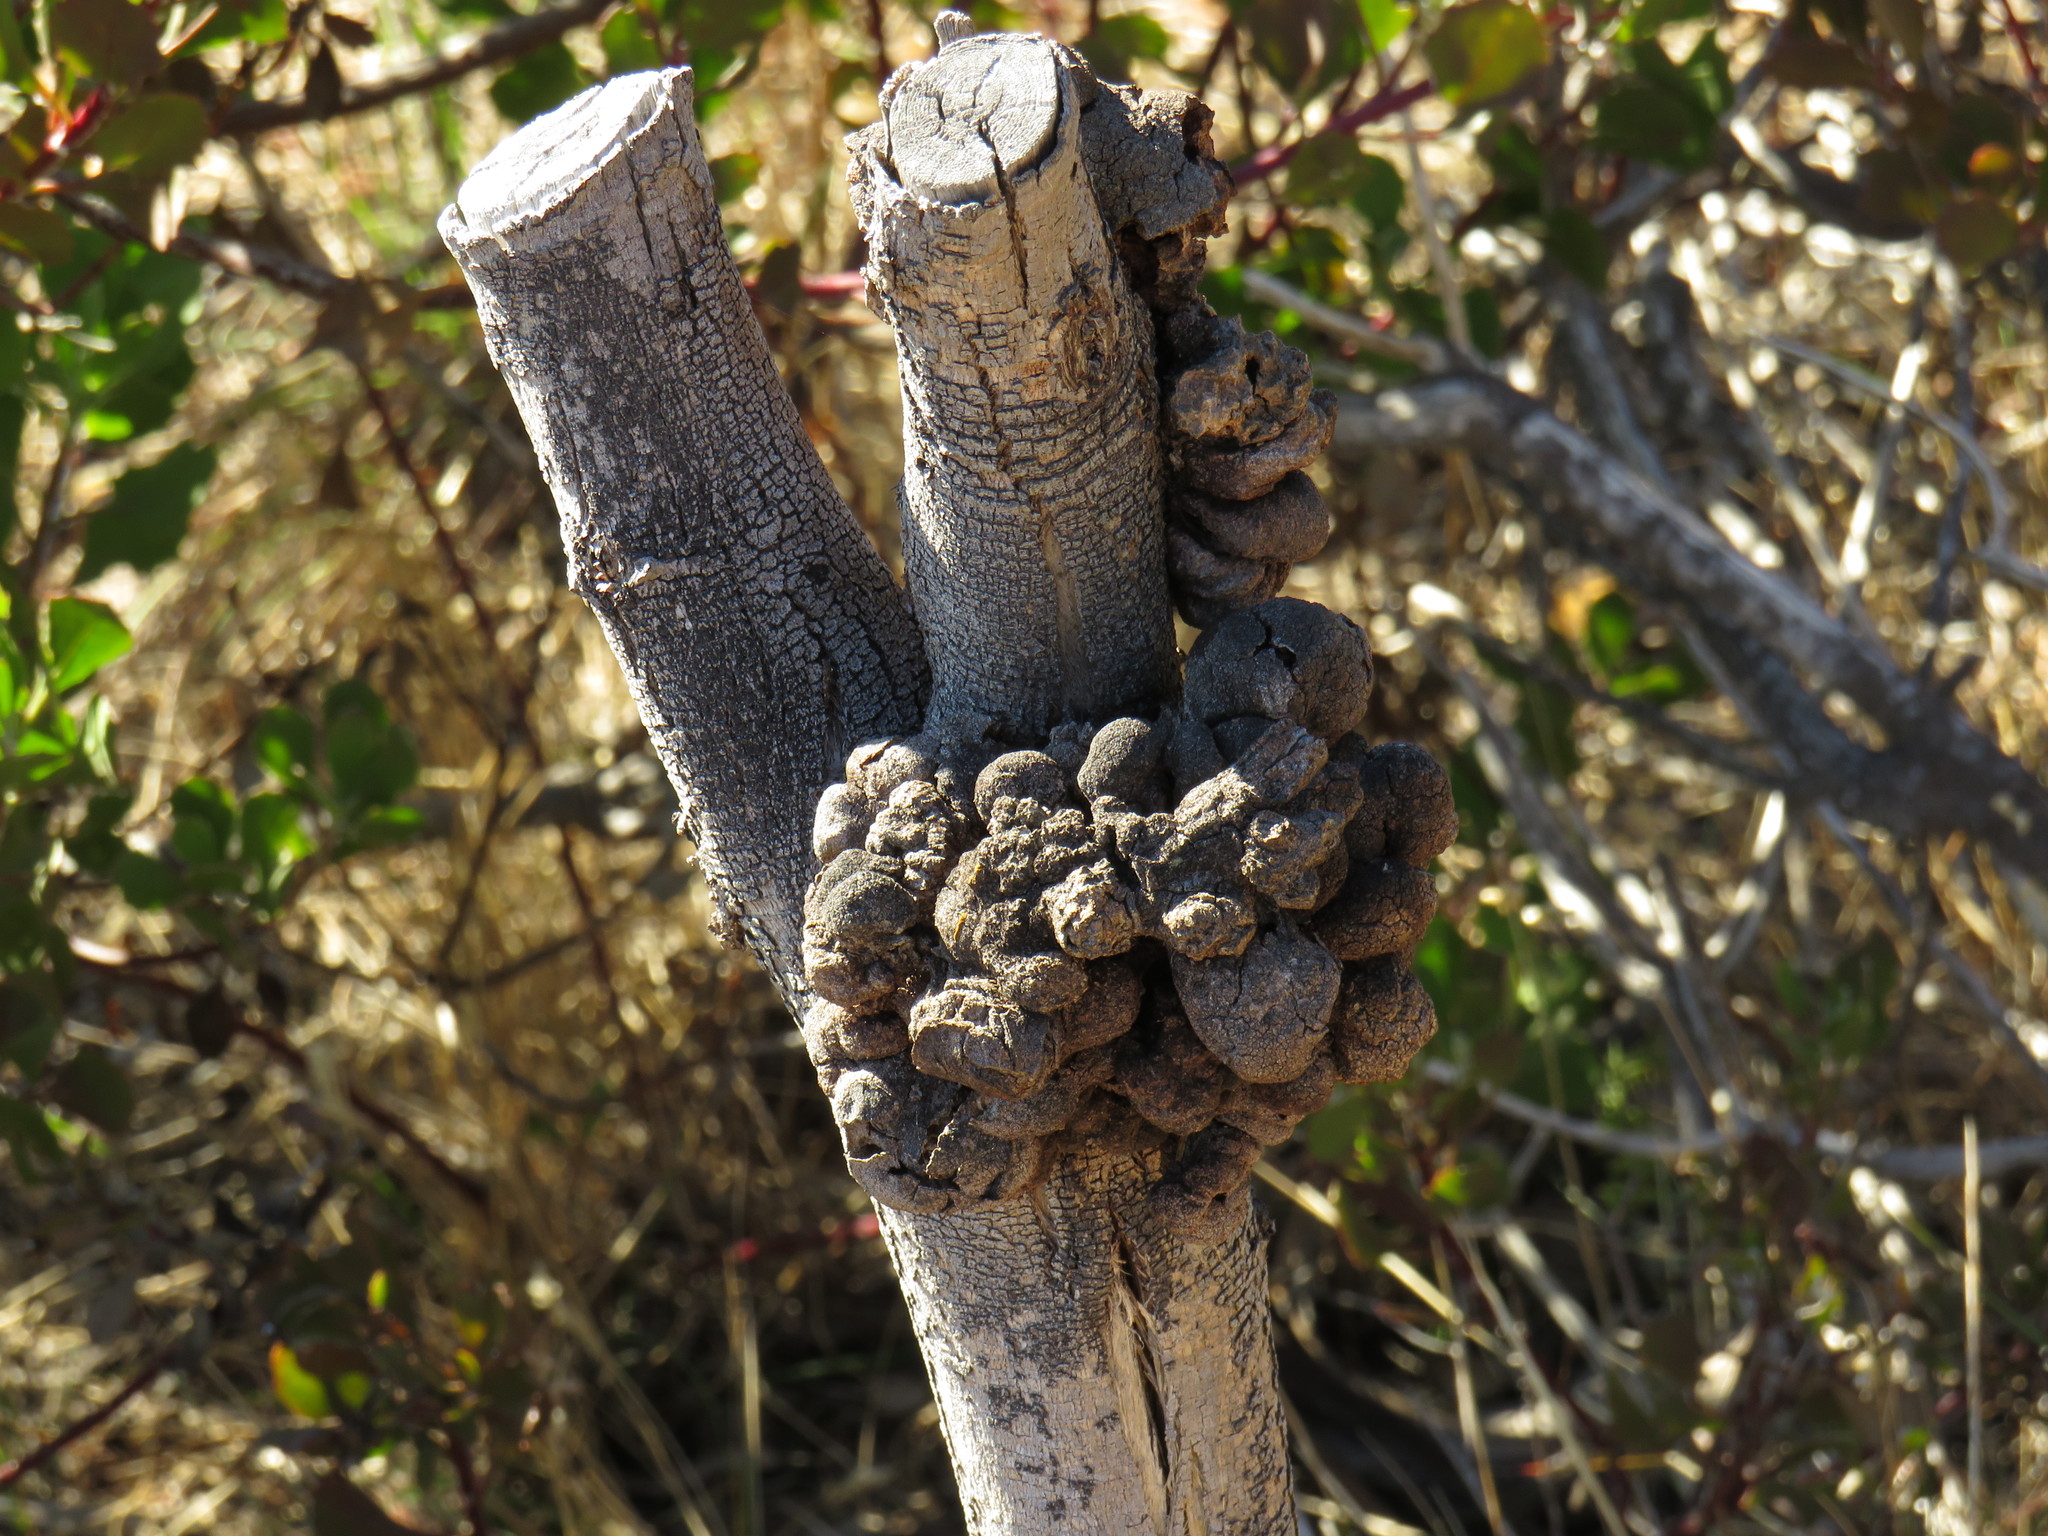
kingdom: Fungi
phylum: Basidiomycota
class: Pucciniomycetes
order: Pucciniales
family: Uromycladiaceae
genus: Uromycladium
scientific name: Uromycladium morrisii
